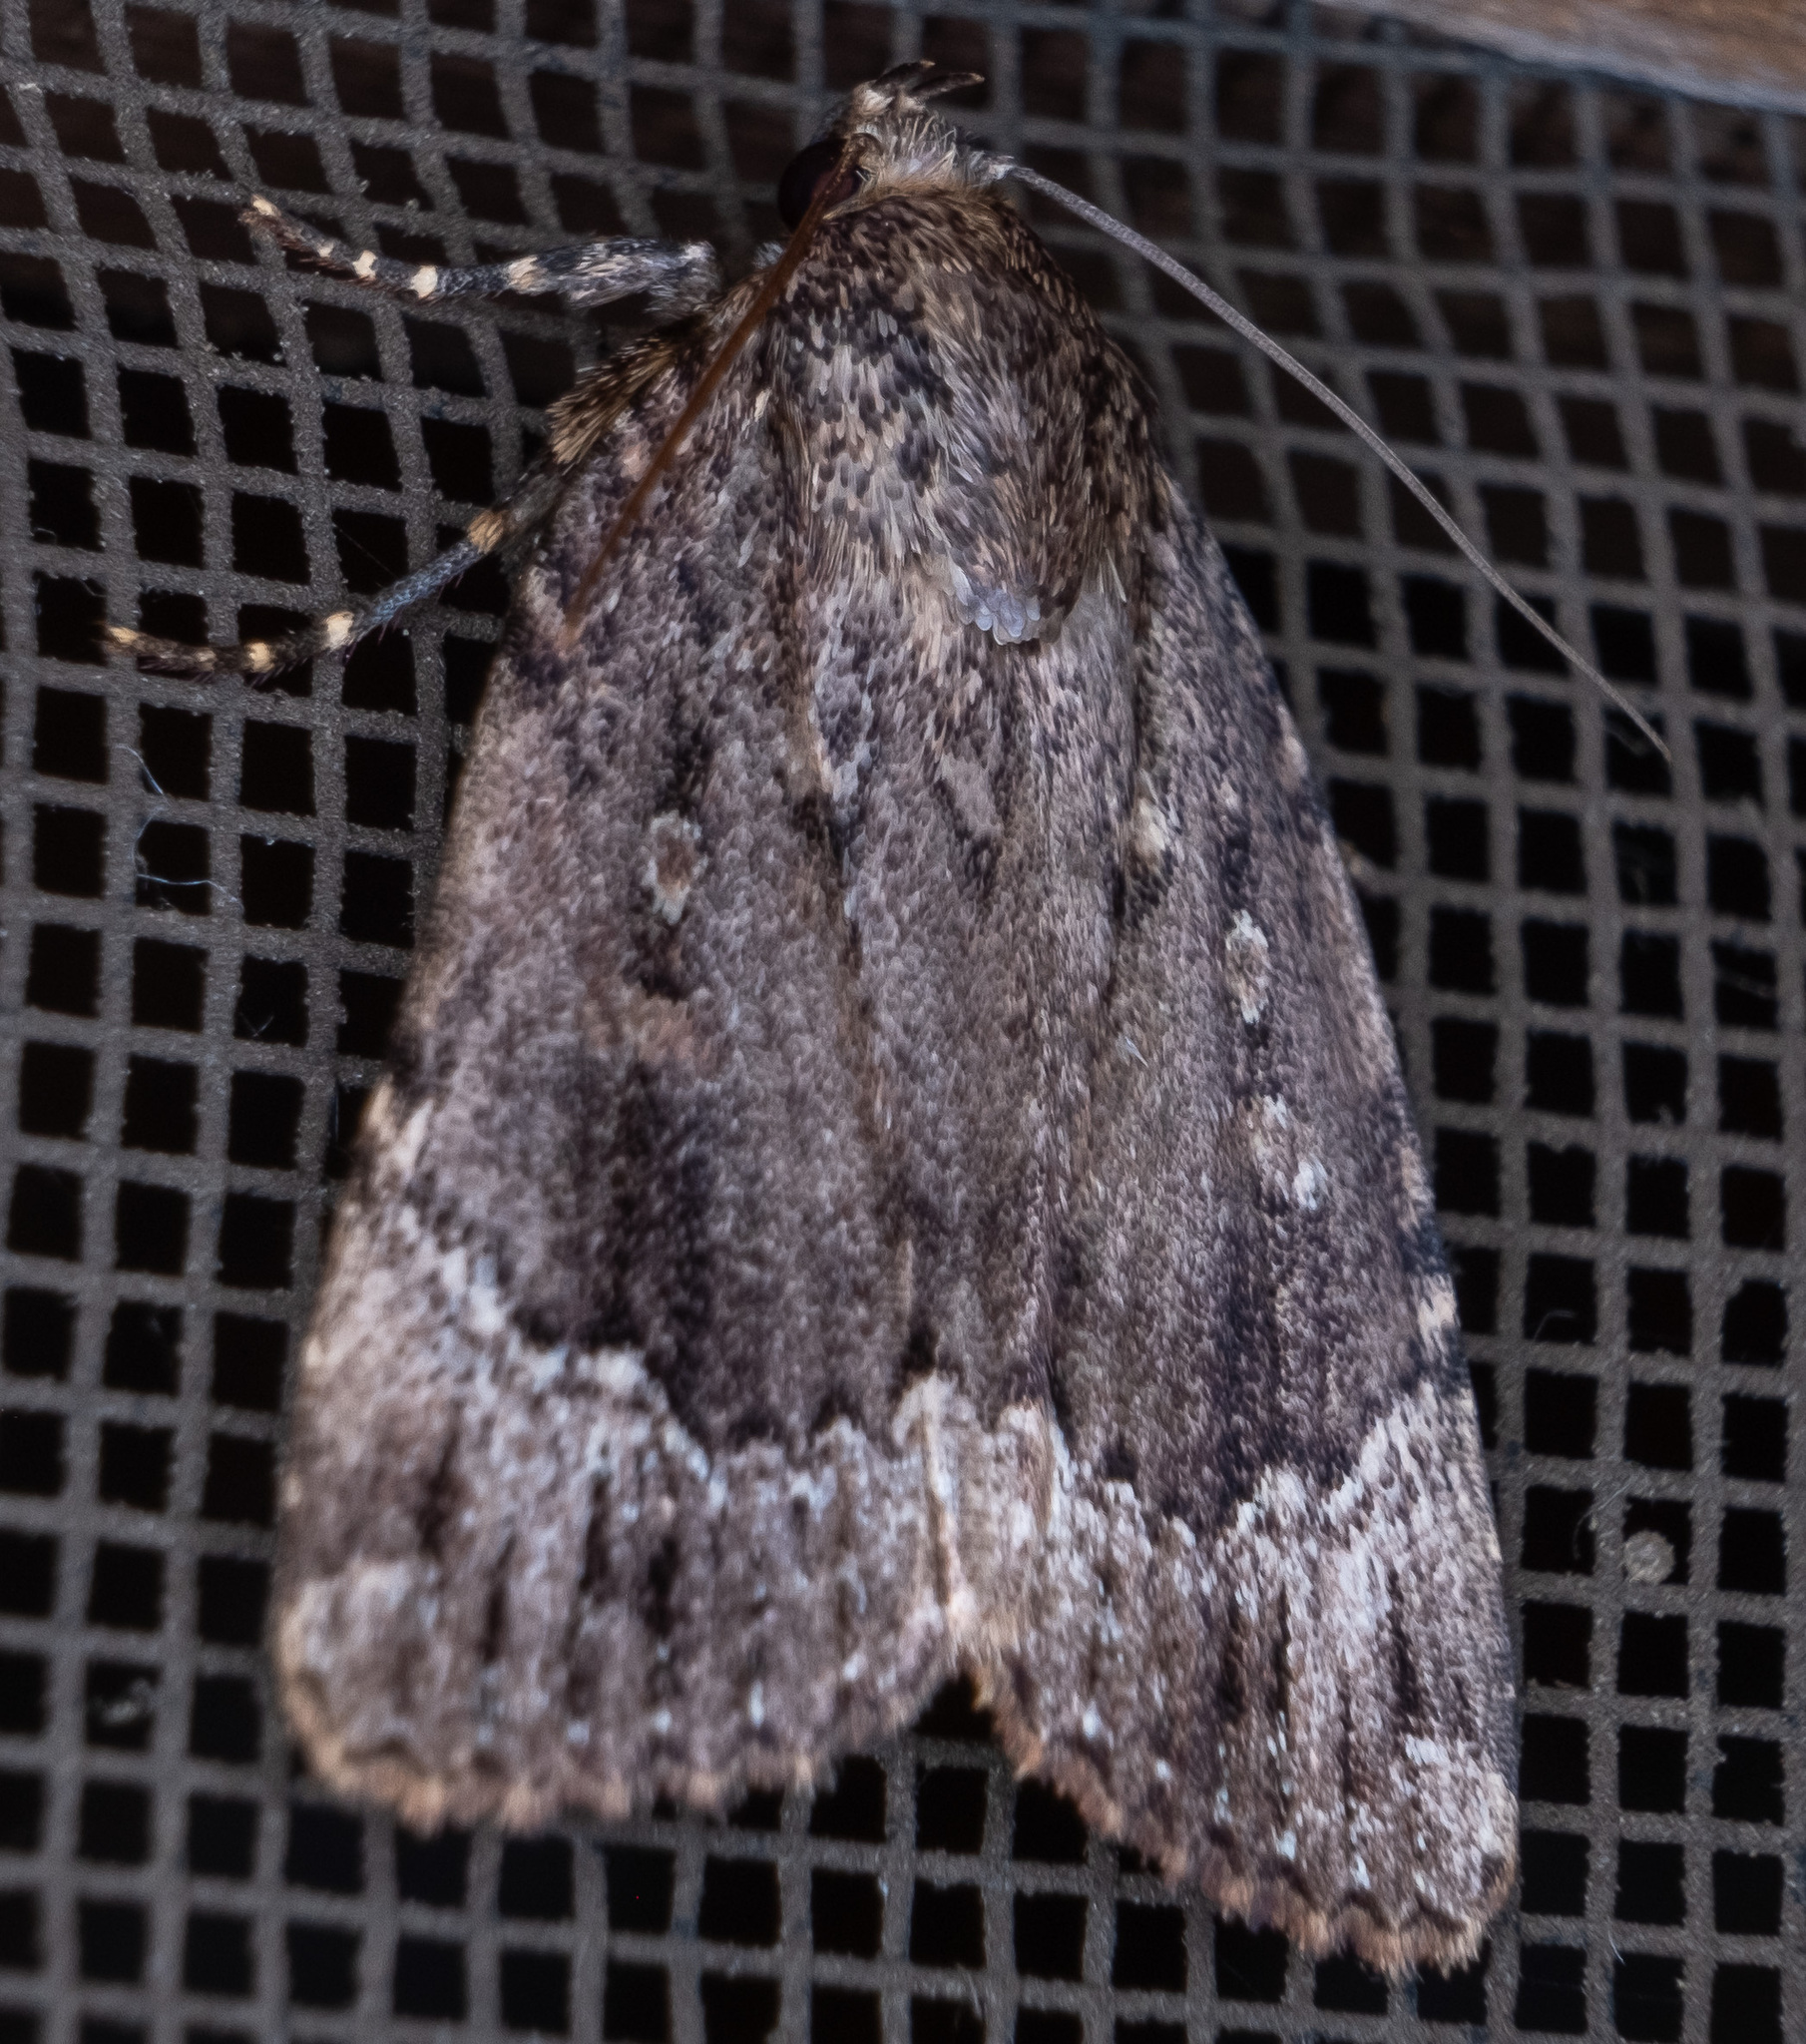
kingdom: Animalia
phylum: Arthropoda
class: Insecta
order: Lepidoptera
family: Noctuidae
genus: Amphipyra
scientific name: Amphipyra pyramidoides
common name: American copper underwing
